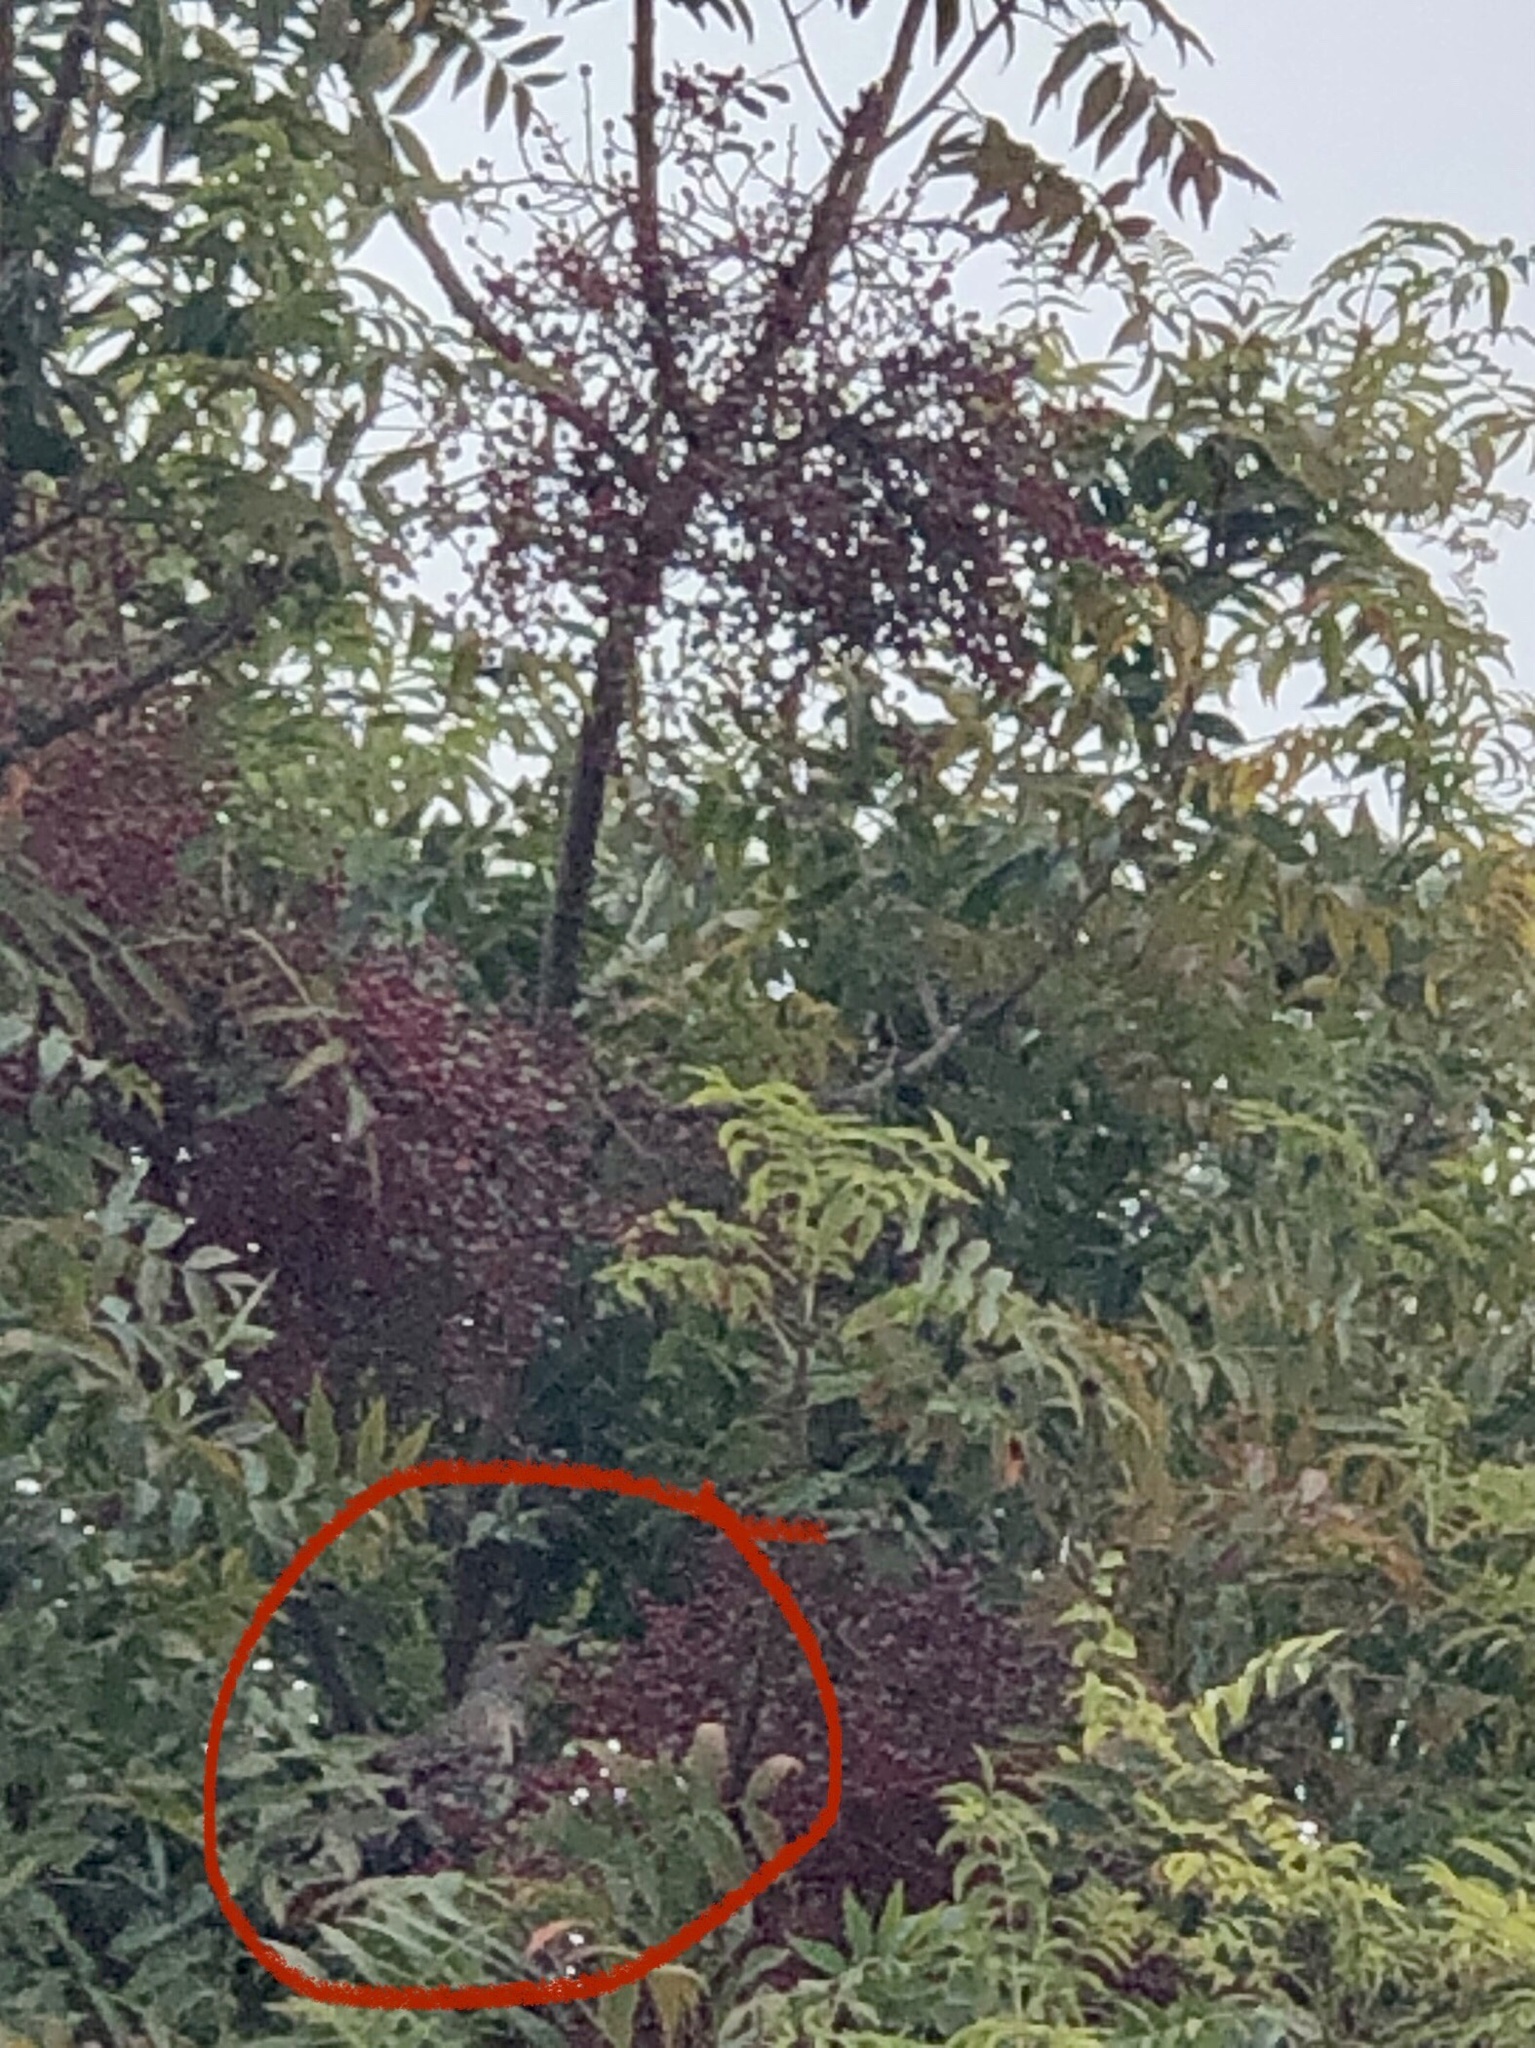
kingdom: Animalia
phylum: Chordata
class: Aves
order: Piciformes
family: Picidae
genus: Colaptes
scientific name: Colaptes auratus
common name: Northern flicker
